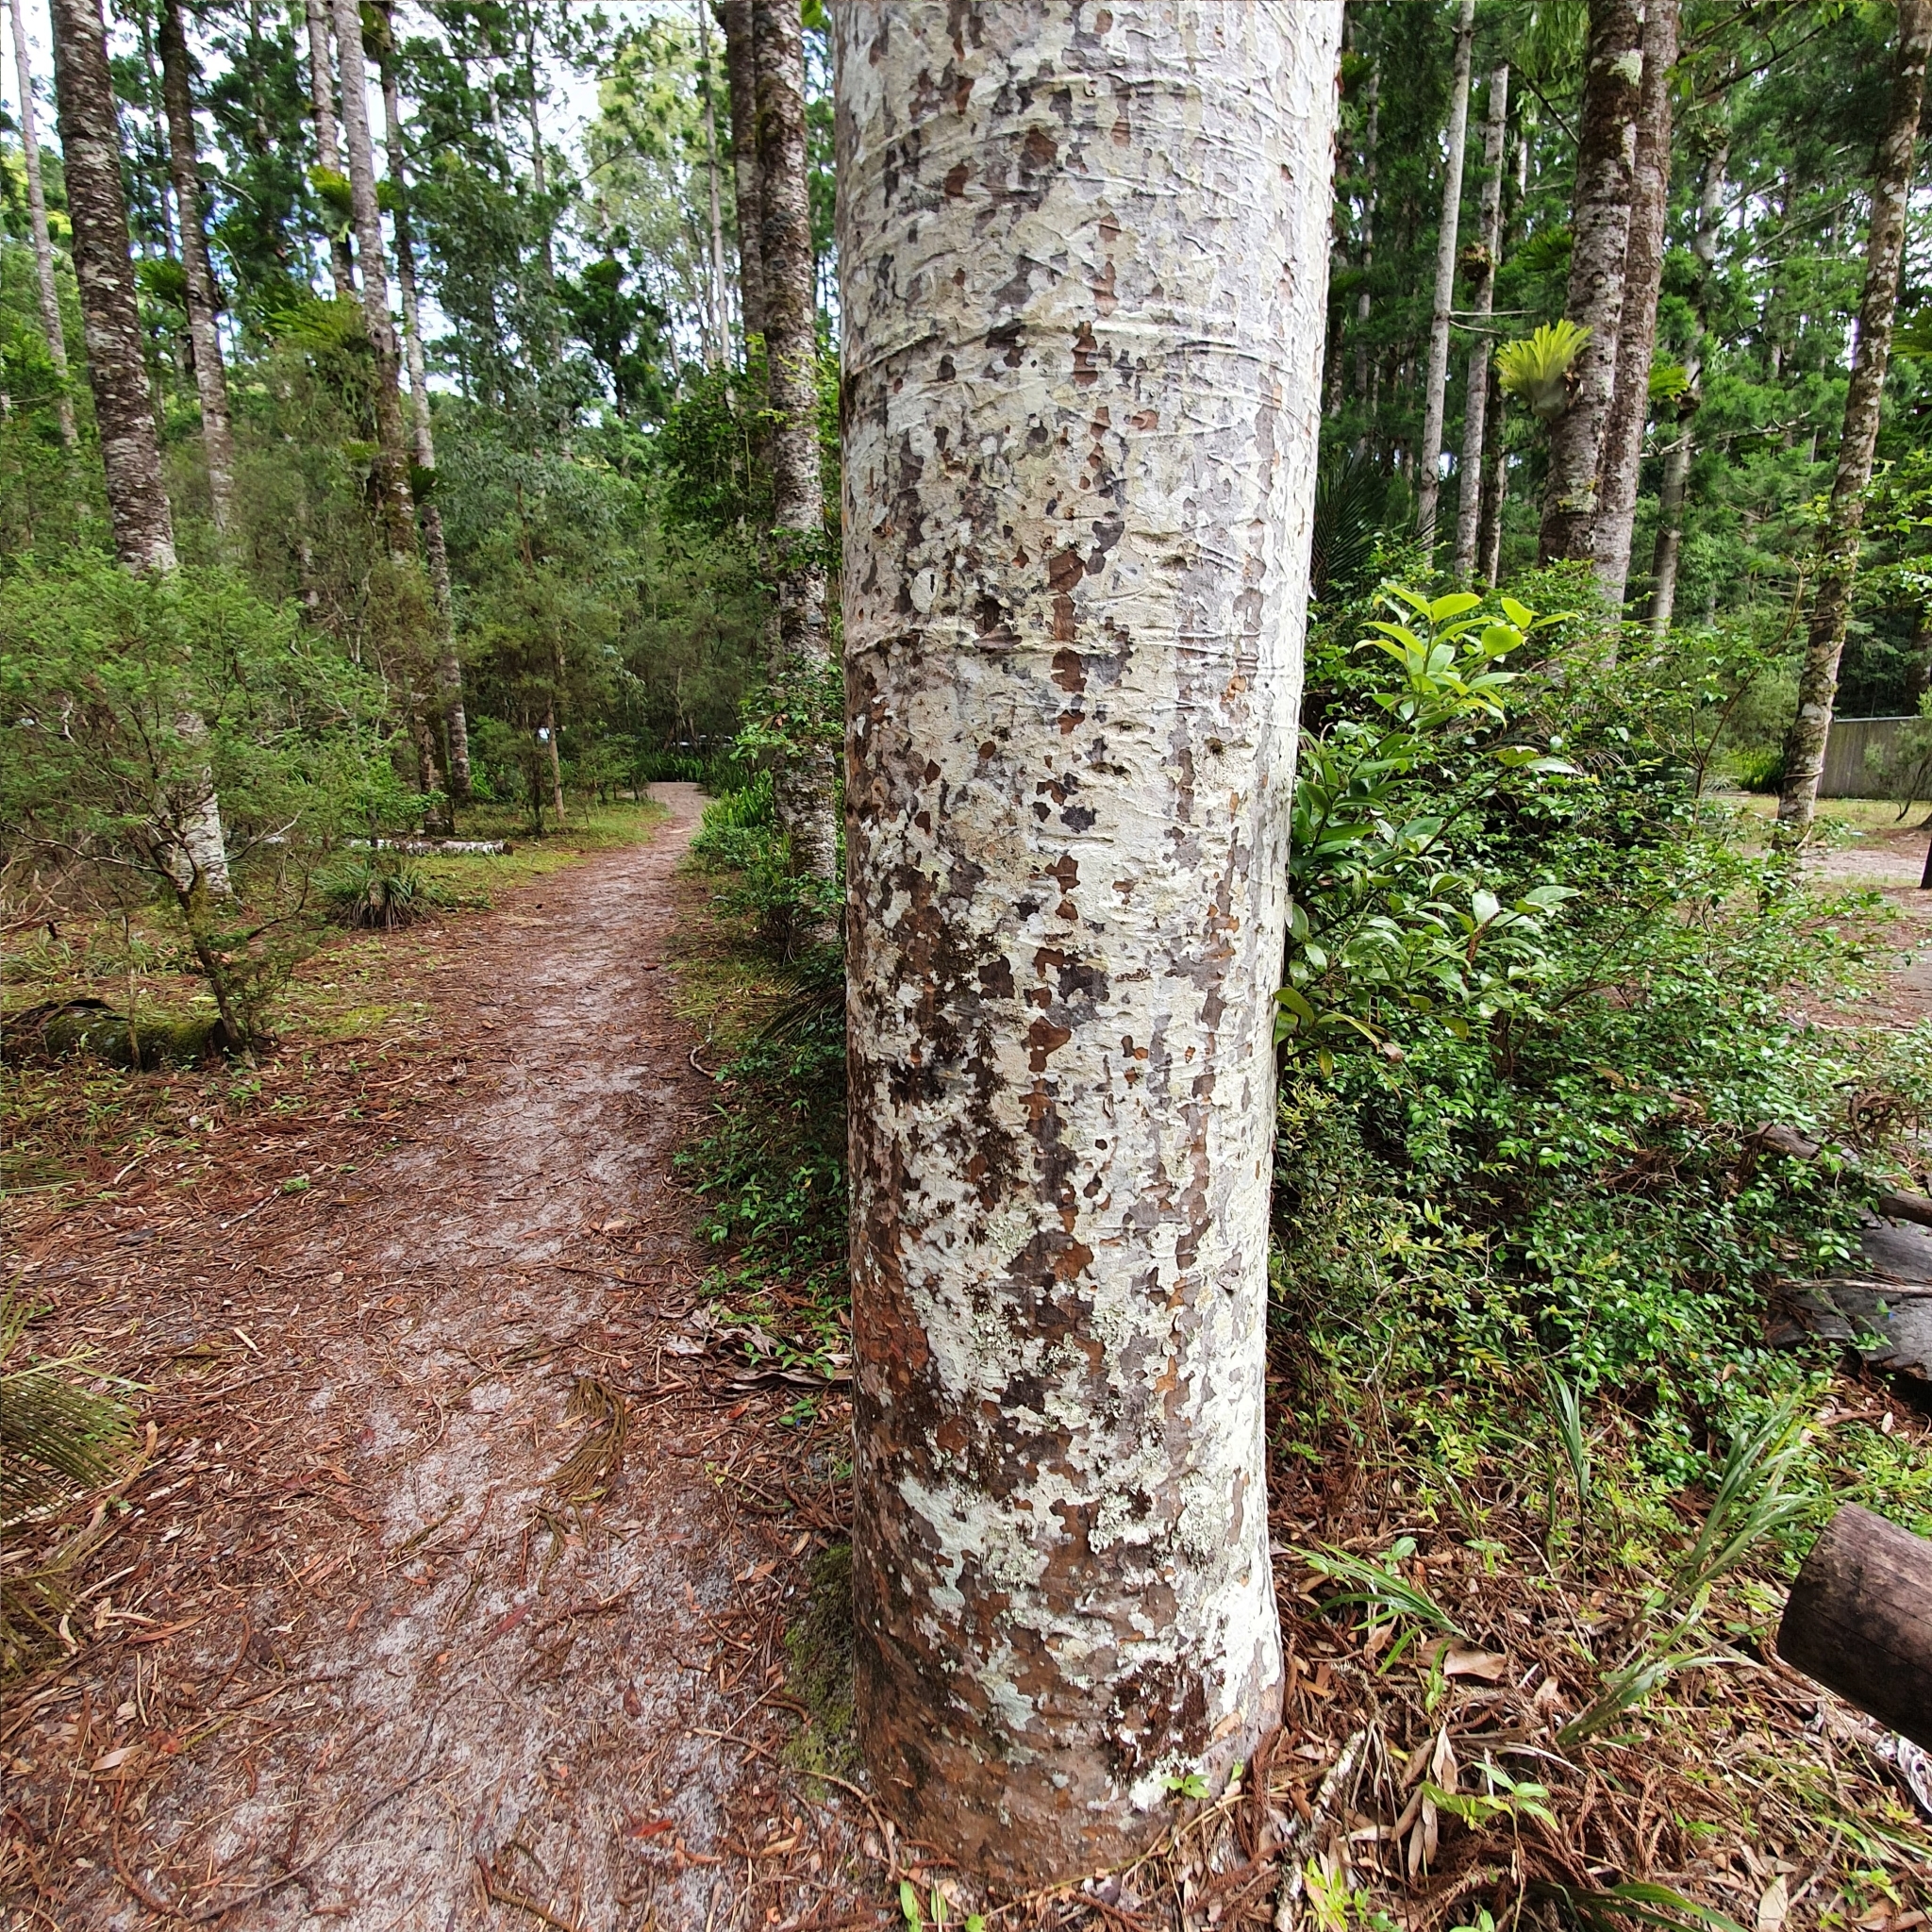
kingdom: Plantae
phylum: Tracheophyta
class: Pinopsida
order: Pinales
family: Araucariaceae
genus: Agathis
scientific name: Agathis robusta
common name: Australian-kauri
